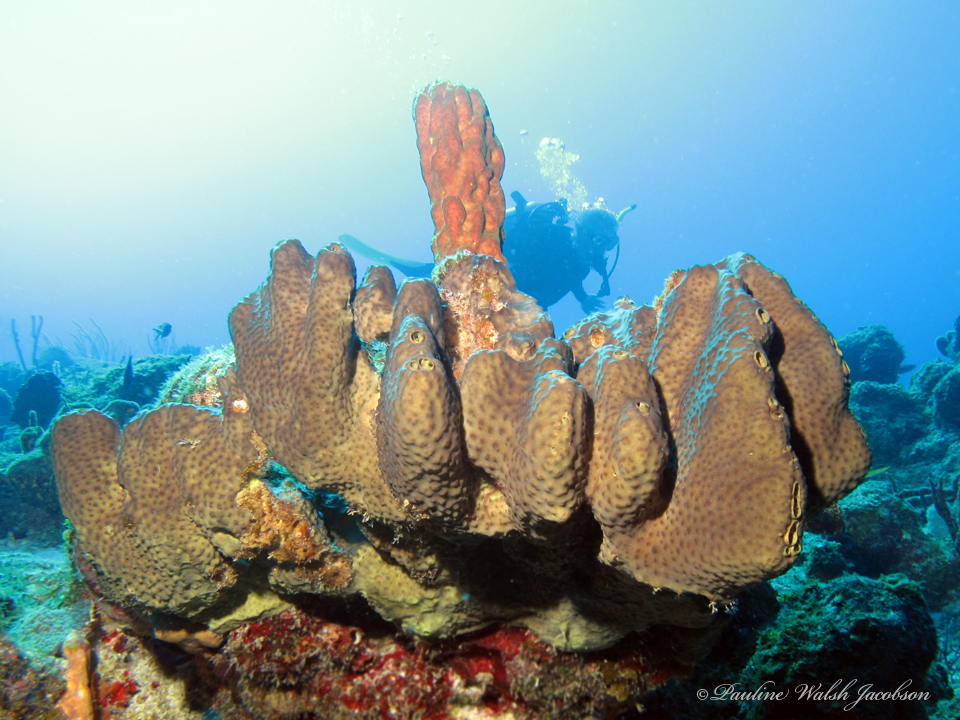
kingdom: Animalia
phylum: Porifera
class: Demospongiae
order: Dictyoceratida
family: Thorectidae
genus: Smenospongia
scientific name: Smenospongia conulosa
